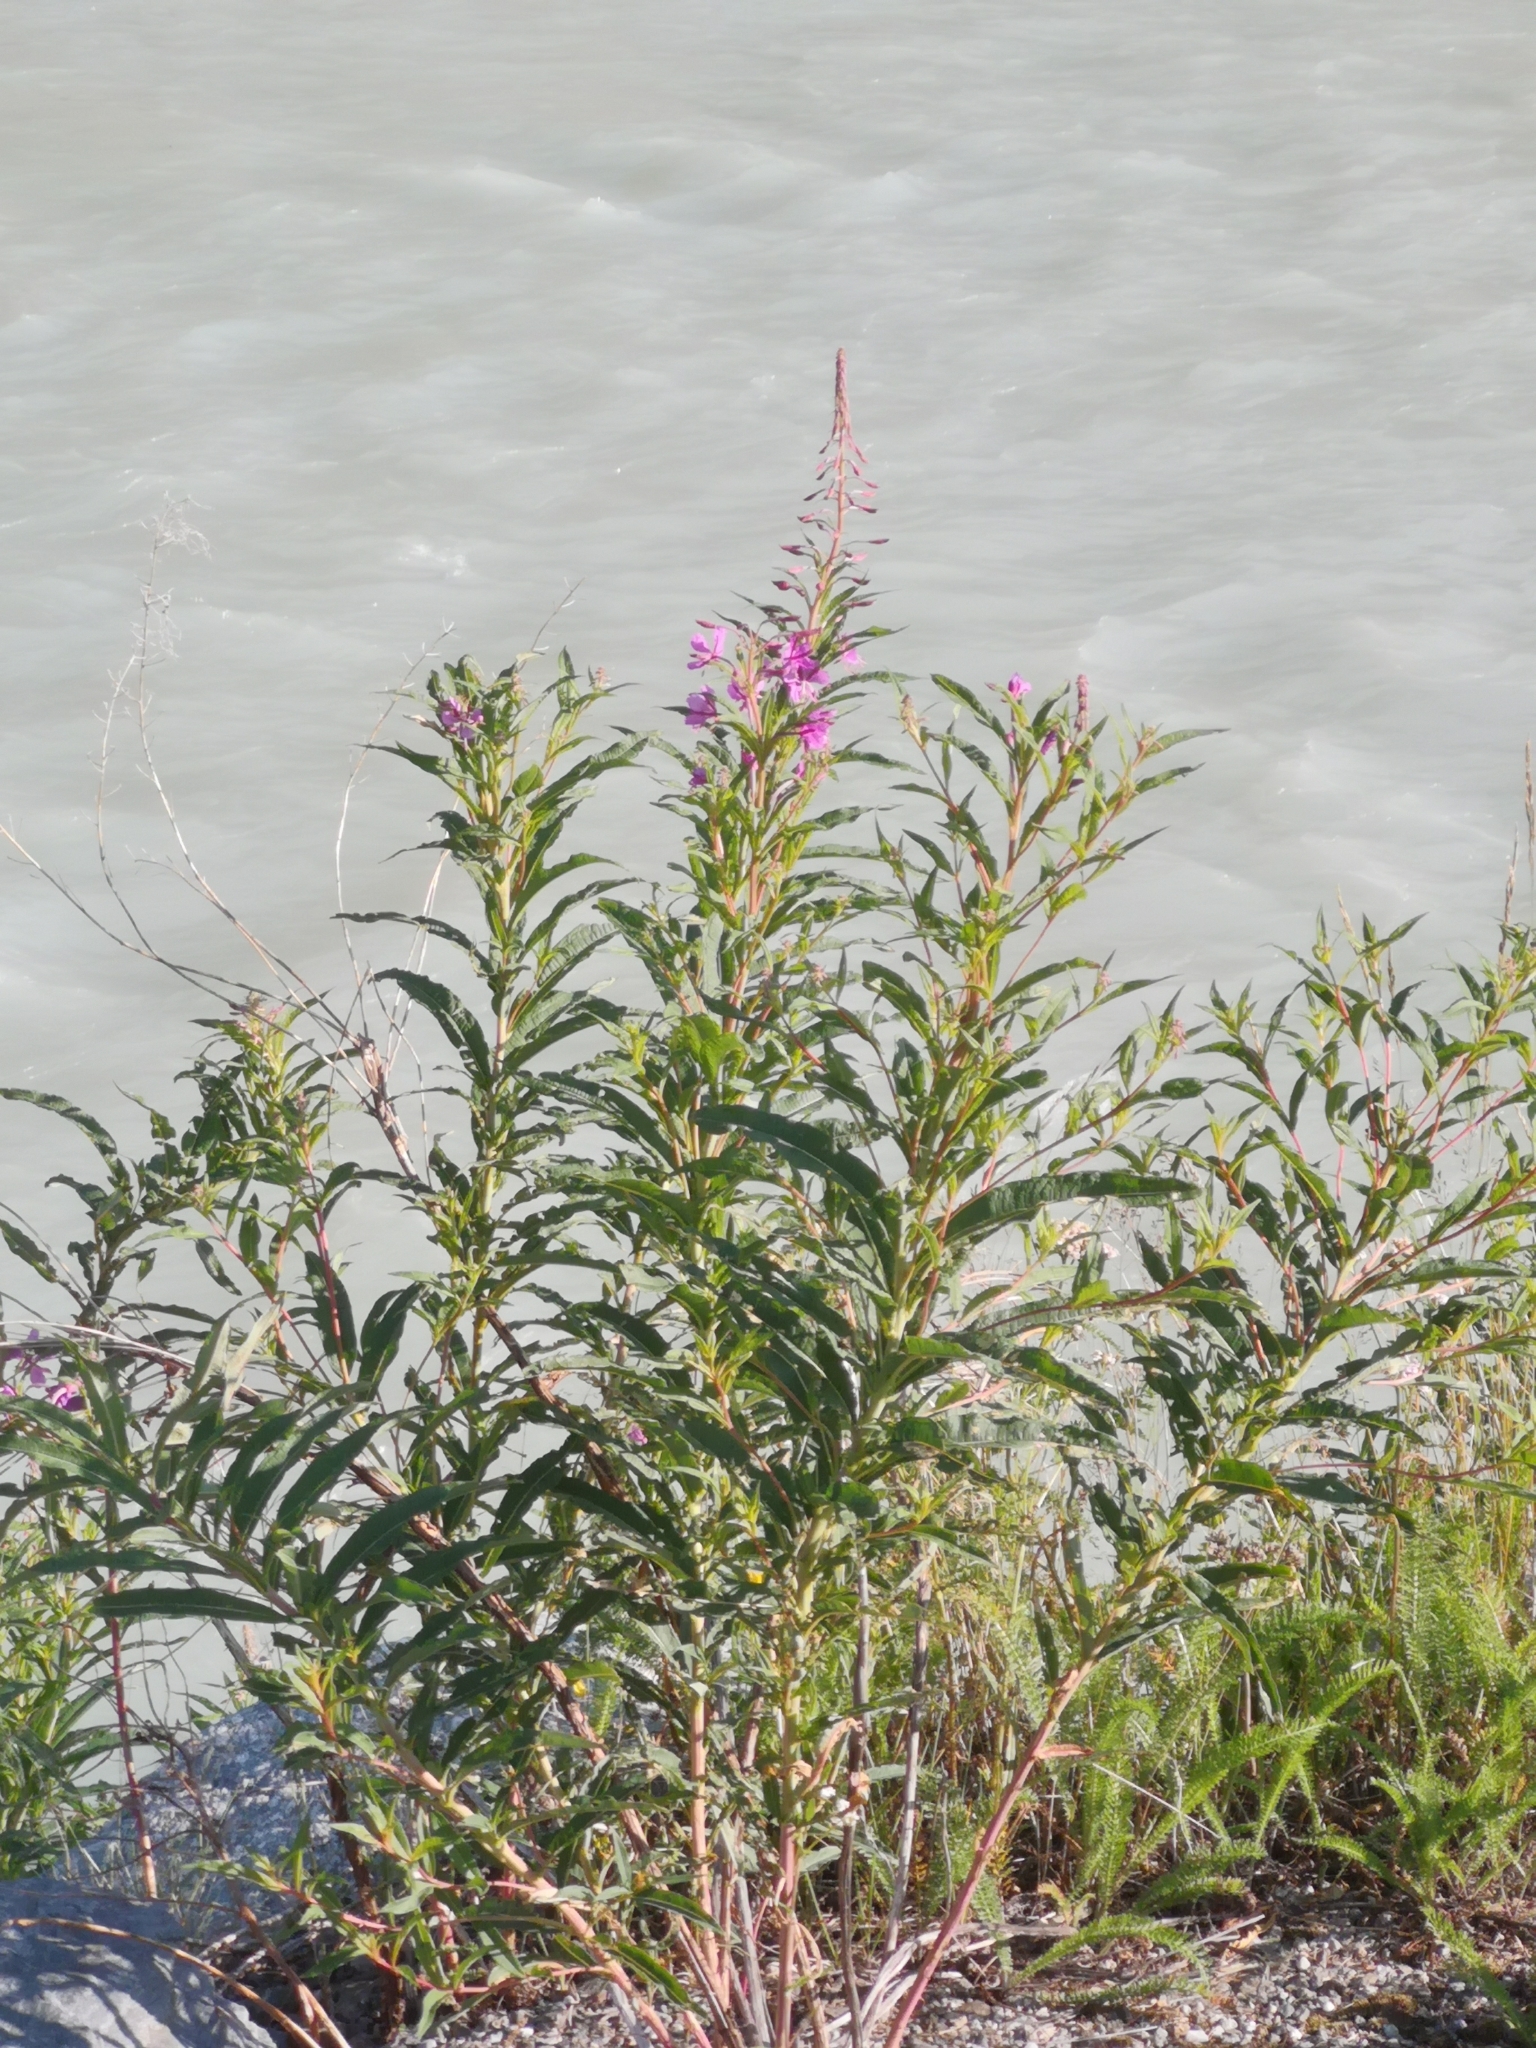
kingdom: Plantae
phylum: Tracheophyta
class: Magnoliopsida
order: Myrtales
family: Onagraceae
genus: Chamaenerion
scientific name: Chamaenerion angustifolium
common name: Fireweed
